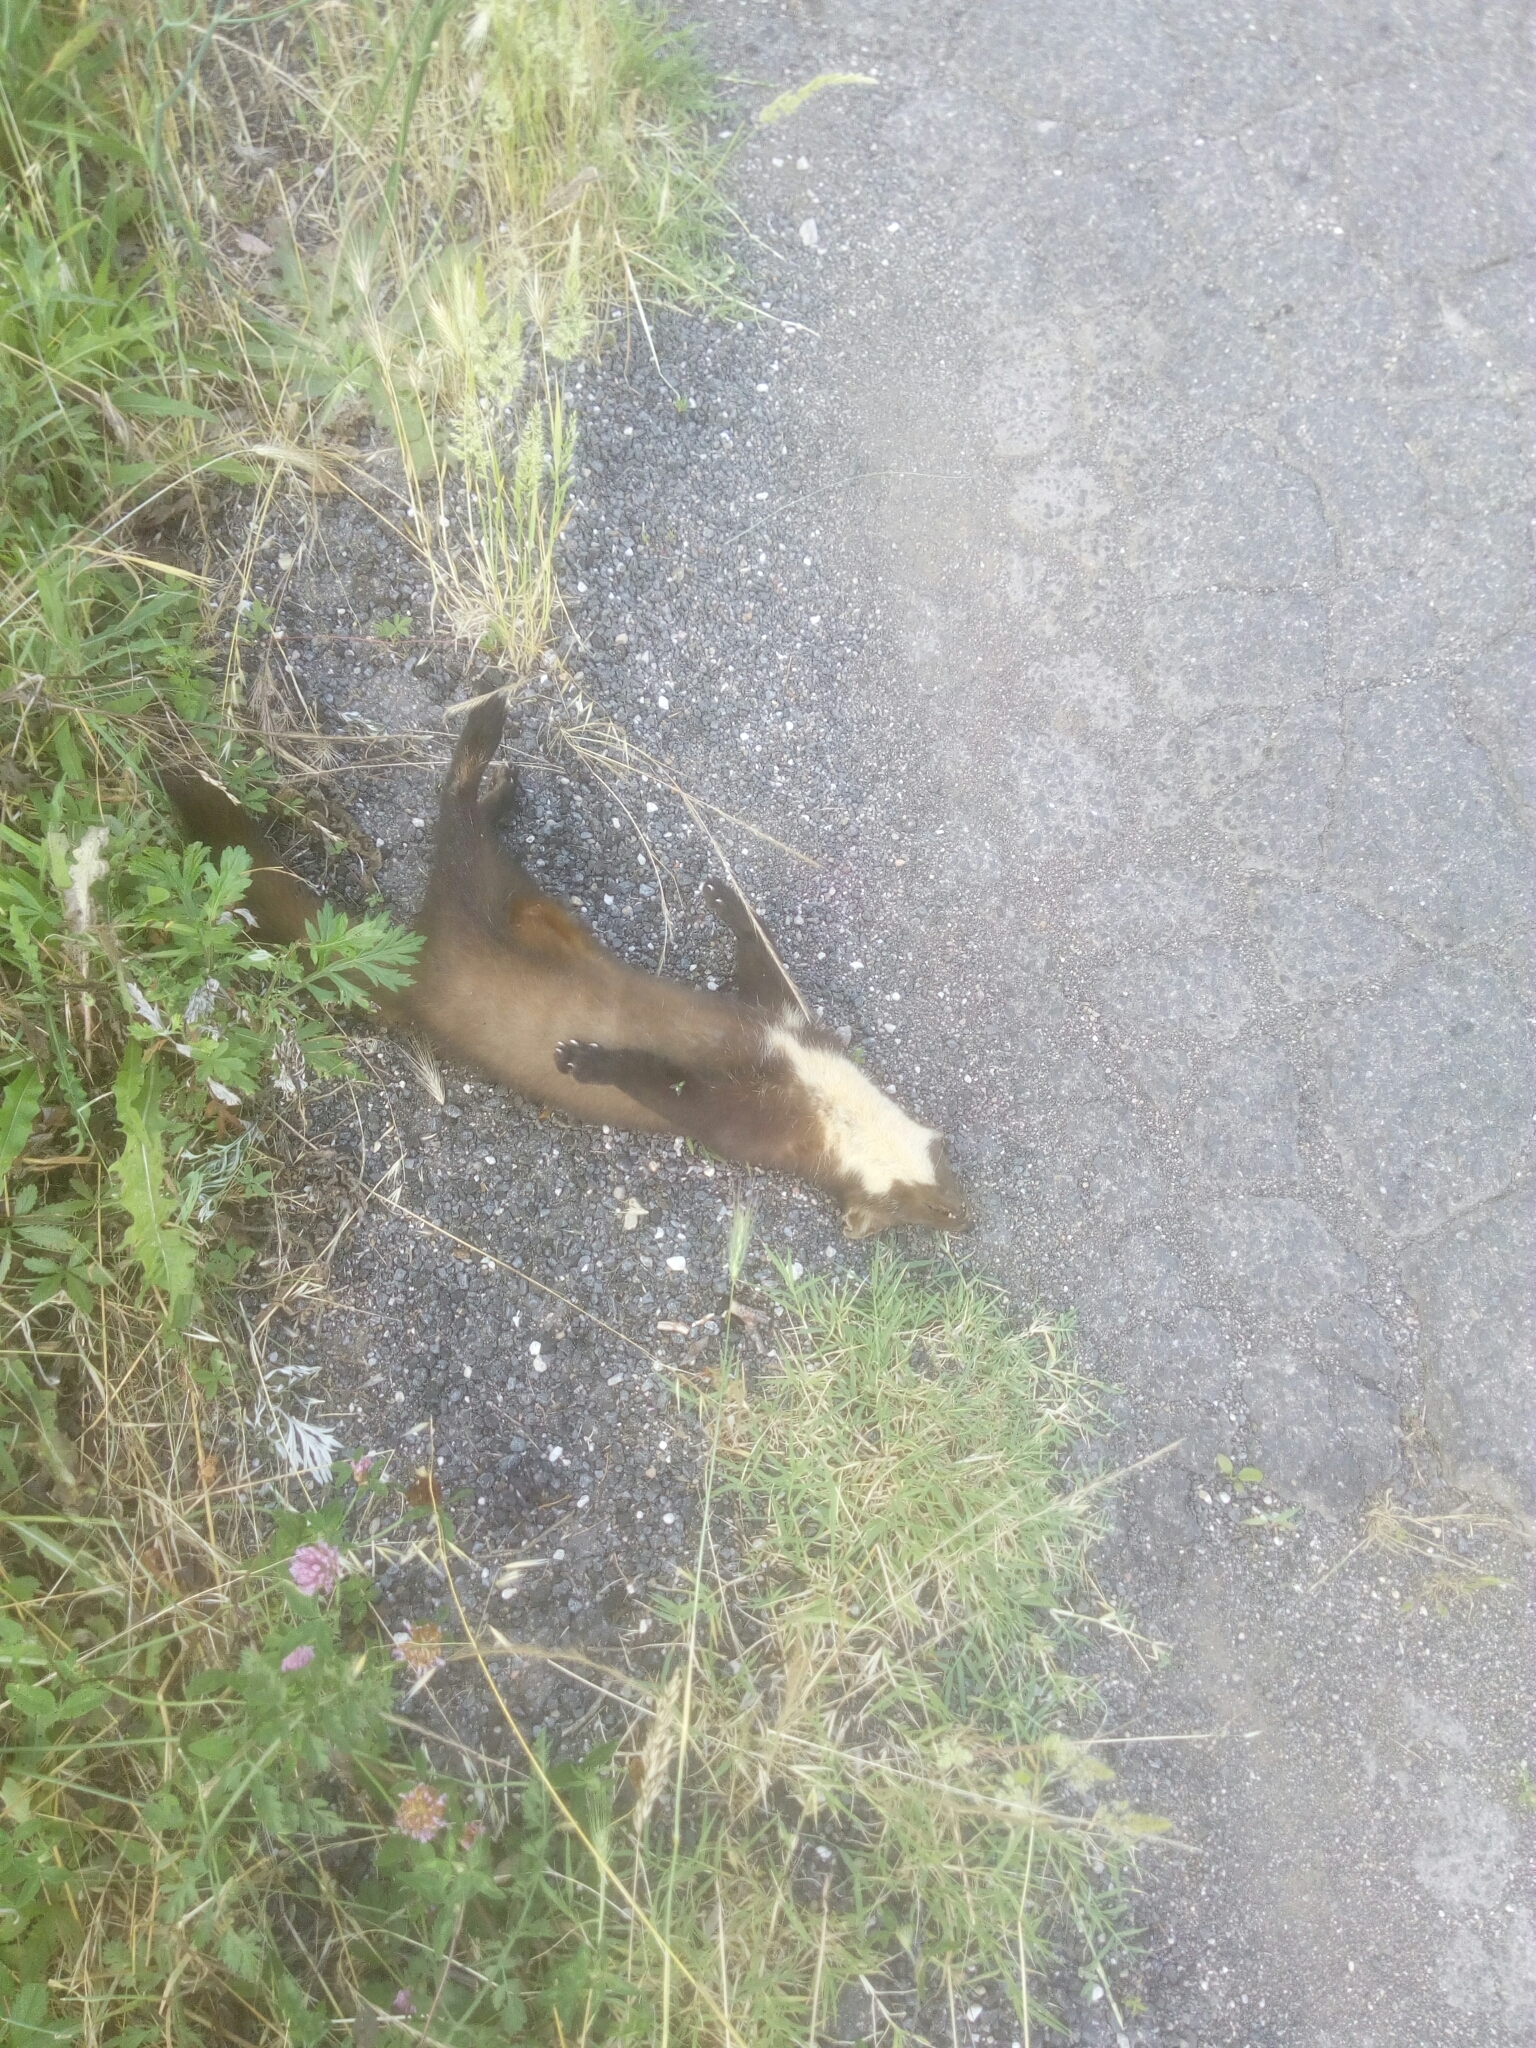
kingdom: Animalia
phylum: Chordata
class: Mammalia
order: Carnivora
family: Mustelidae
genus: Martes
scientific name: Martes martes
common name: European pine marten
